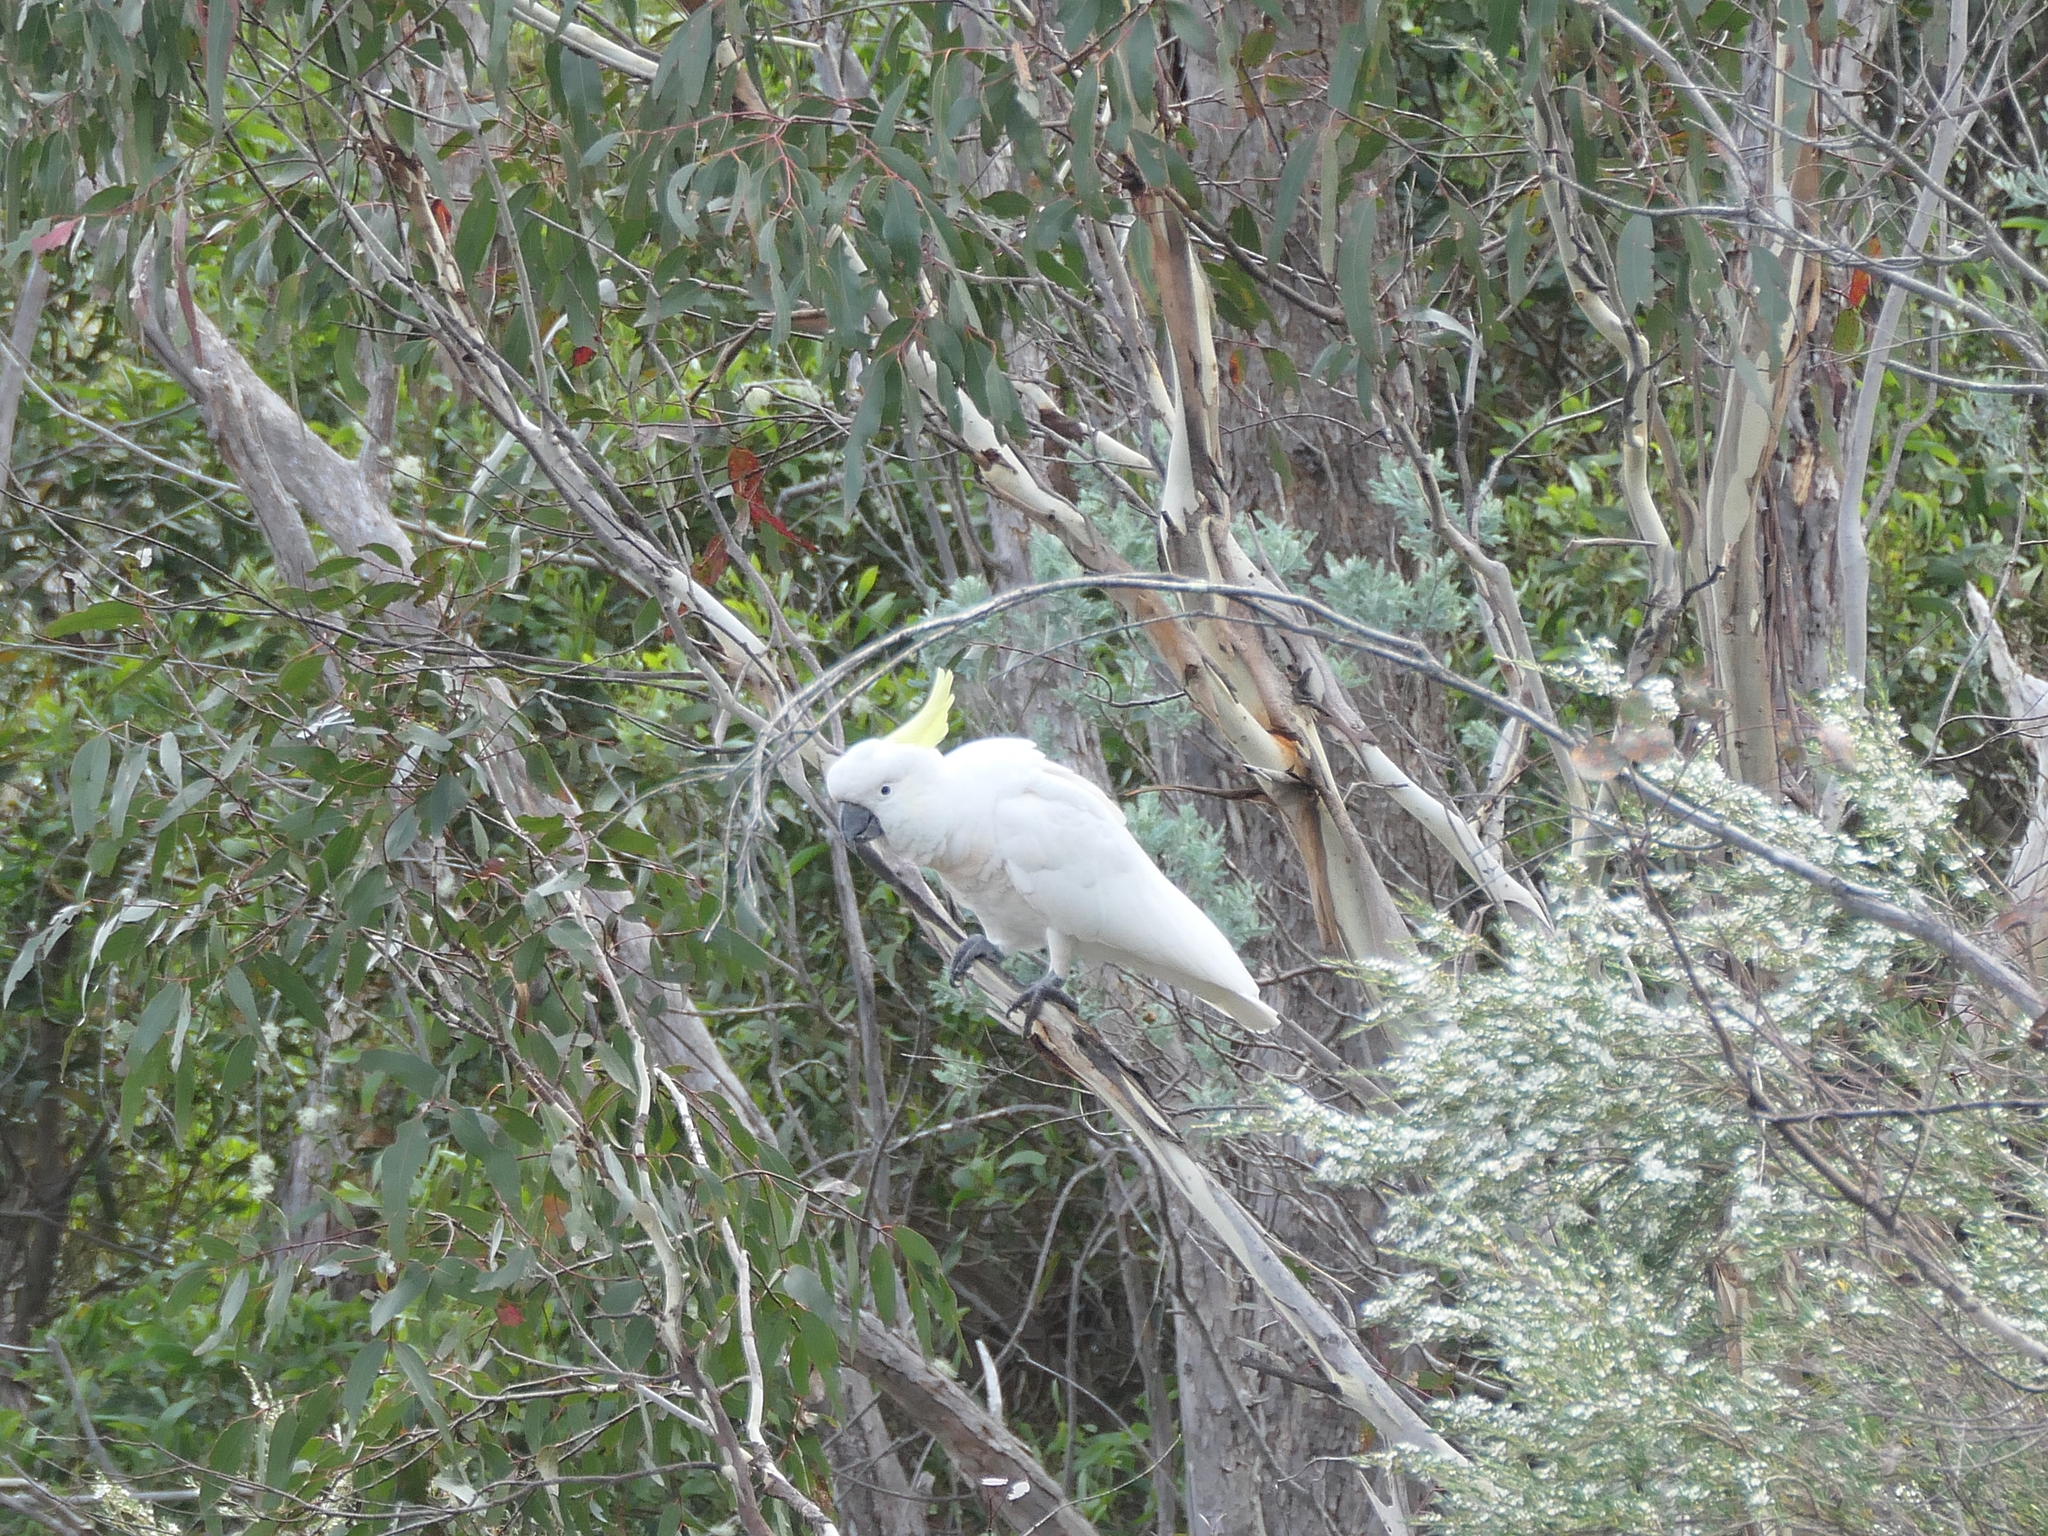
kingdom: Animalia
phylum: Chordata
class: Aves
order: Psittaciformes
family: Psittacidae
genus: Cacatua
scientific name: Cacatua galerita
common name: Sulphur-crested cockatoo
